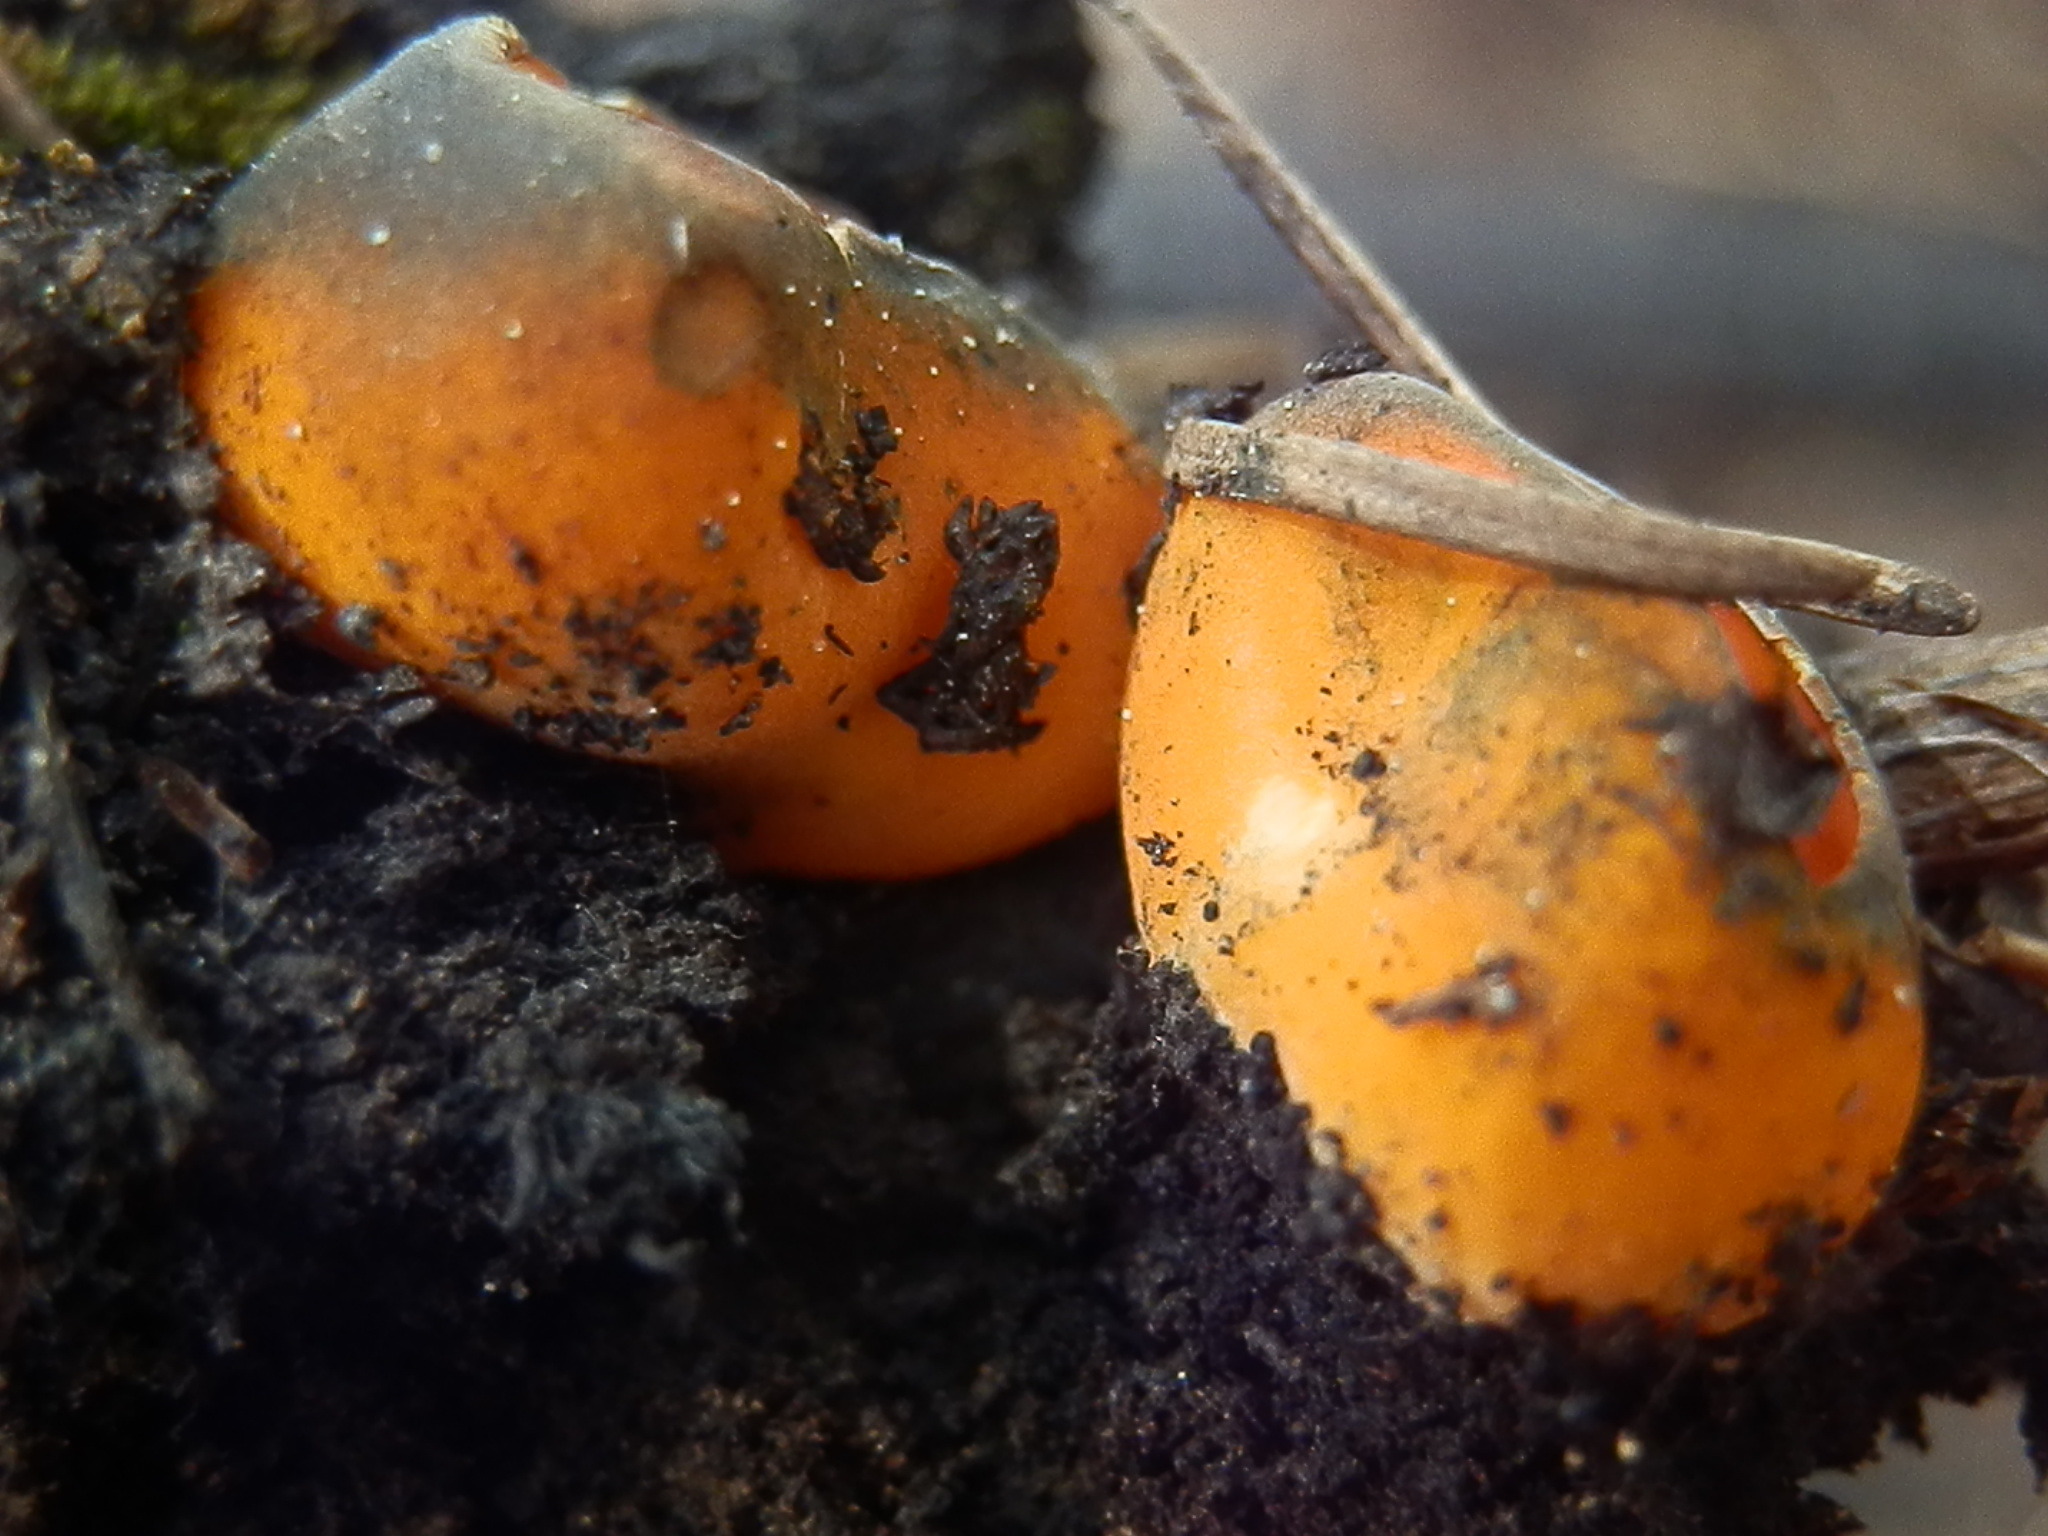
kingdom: Fungi
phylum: Ascomycota
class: Pezizomycetes
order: Pezizales
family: Caloscyphaceae
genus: Caloscypha
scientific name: Caloscypha fulgens
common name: Golden cup
